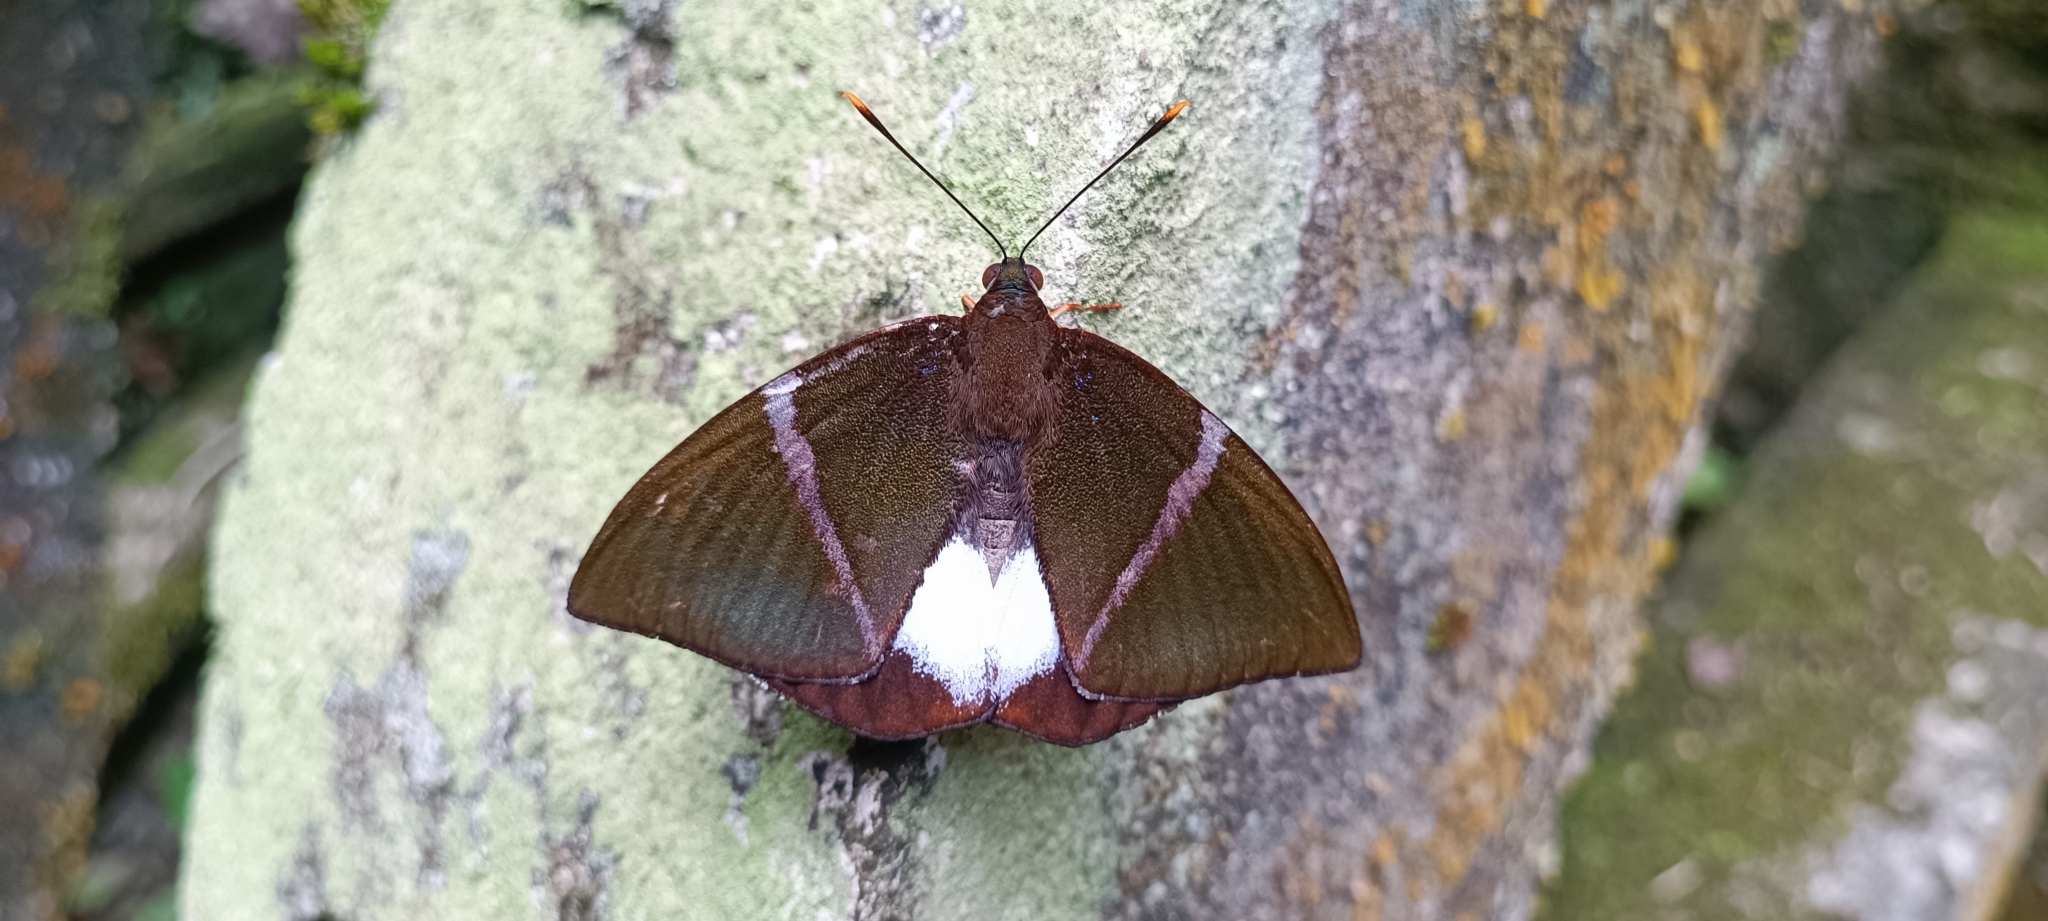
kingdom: Animalia
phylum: Arthropoda
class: Insecta
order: Lepidoptera
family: Castniidae
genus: Castniomera
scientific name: Castniomera atymnius
